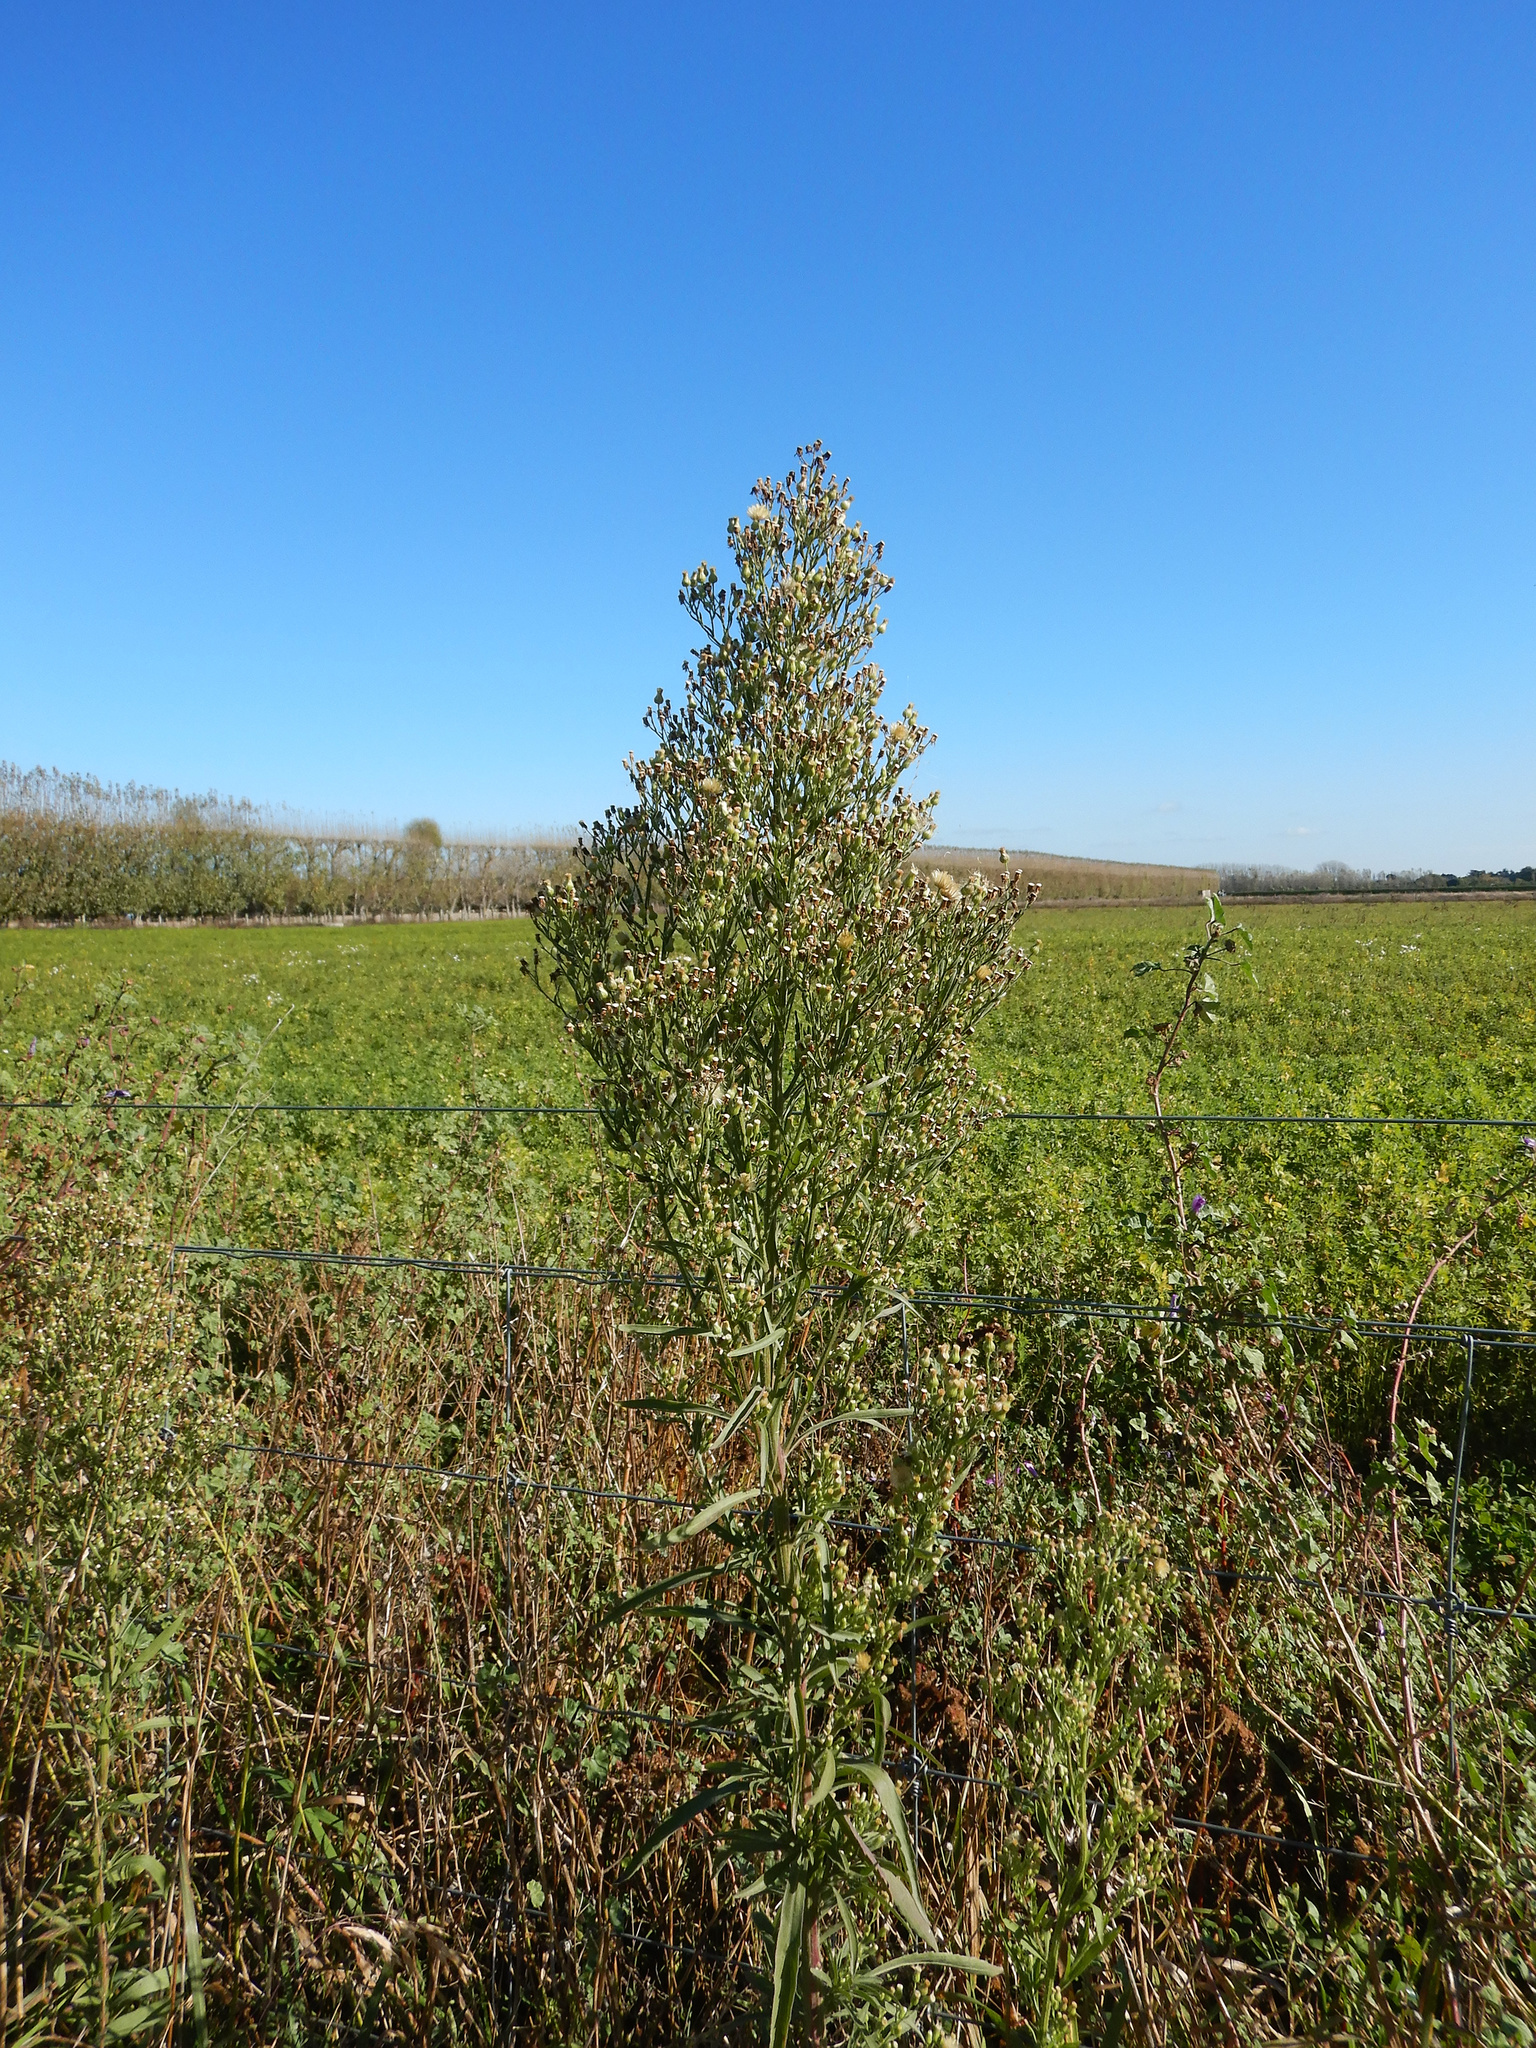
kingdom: Plantae
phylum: Tracheophyta
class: Magnoliopsida
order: Asterales
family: Asteraceae
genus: Erigeron
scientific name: Erigeron sumatrensis
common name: Daisy
